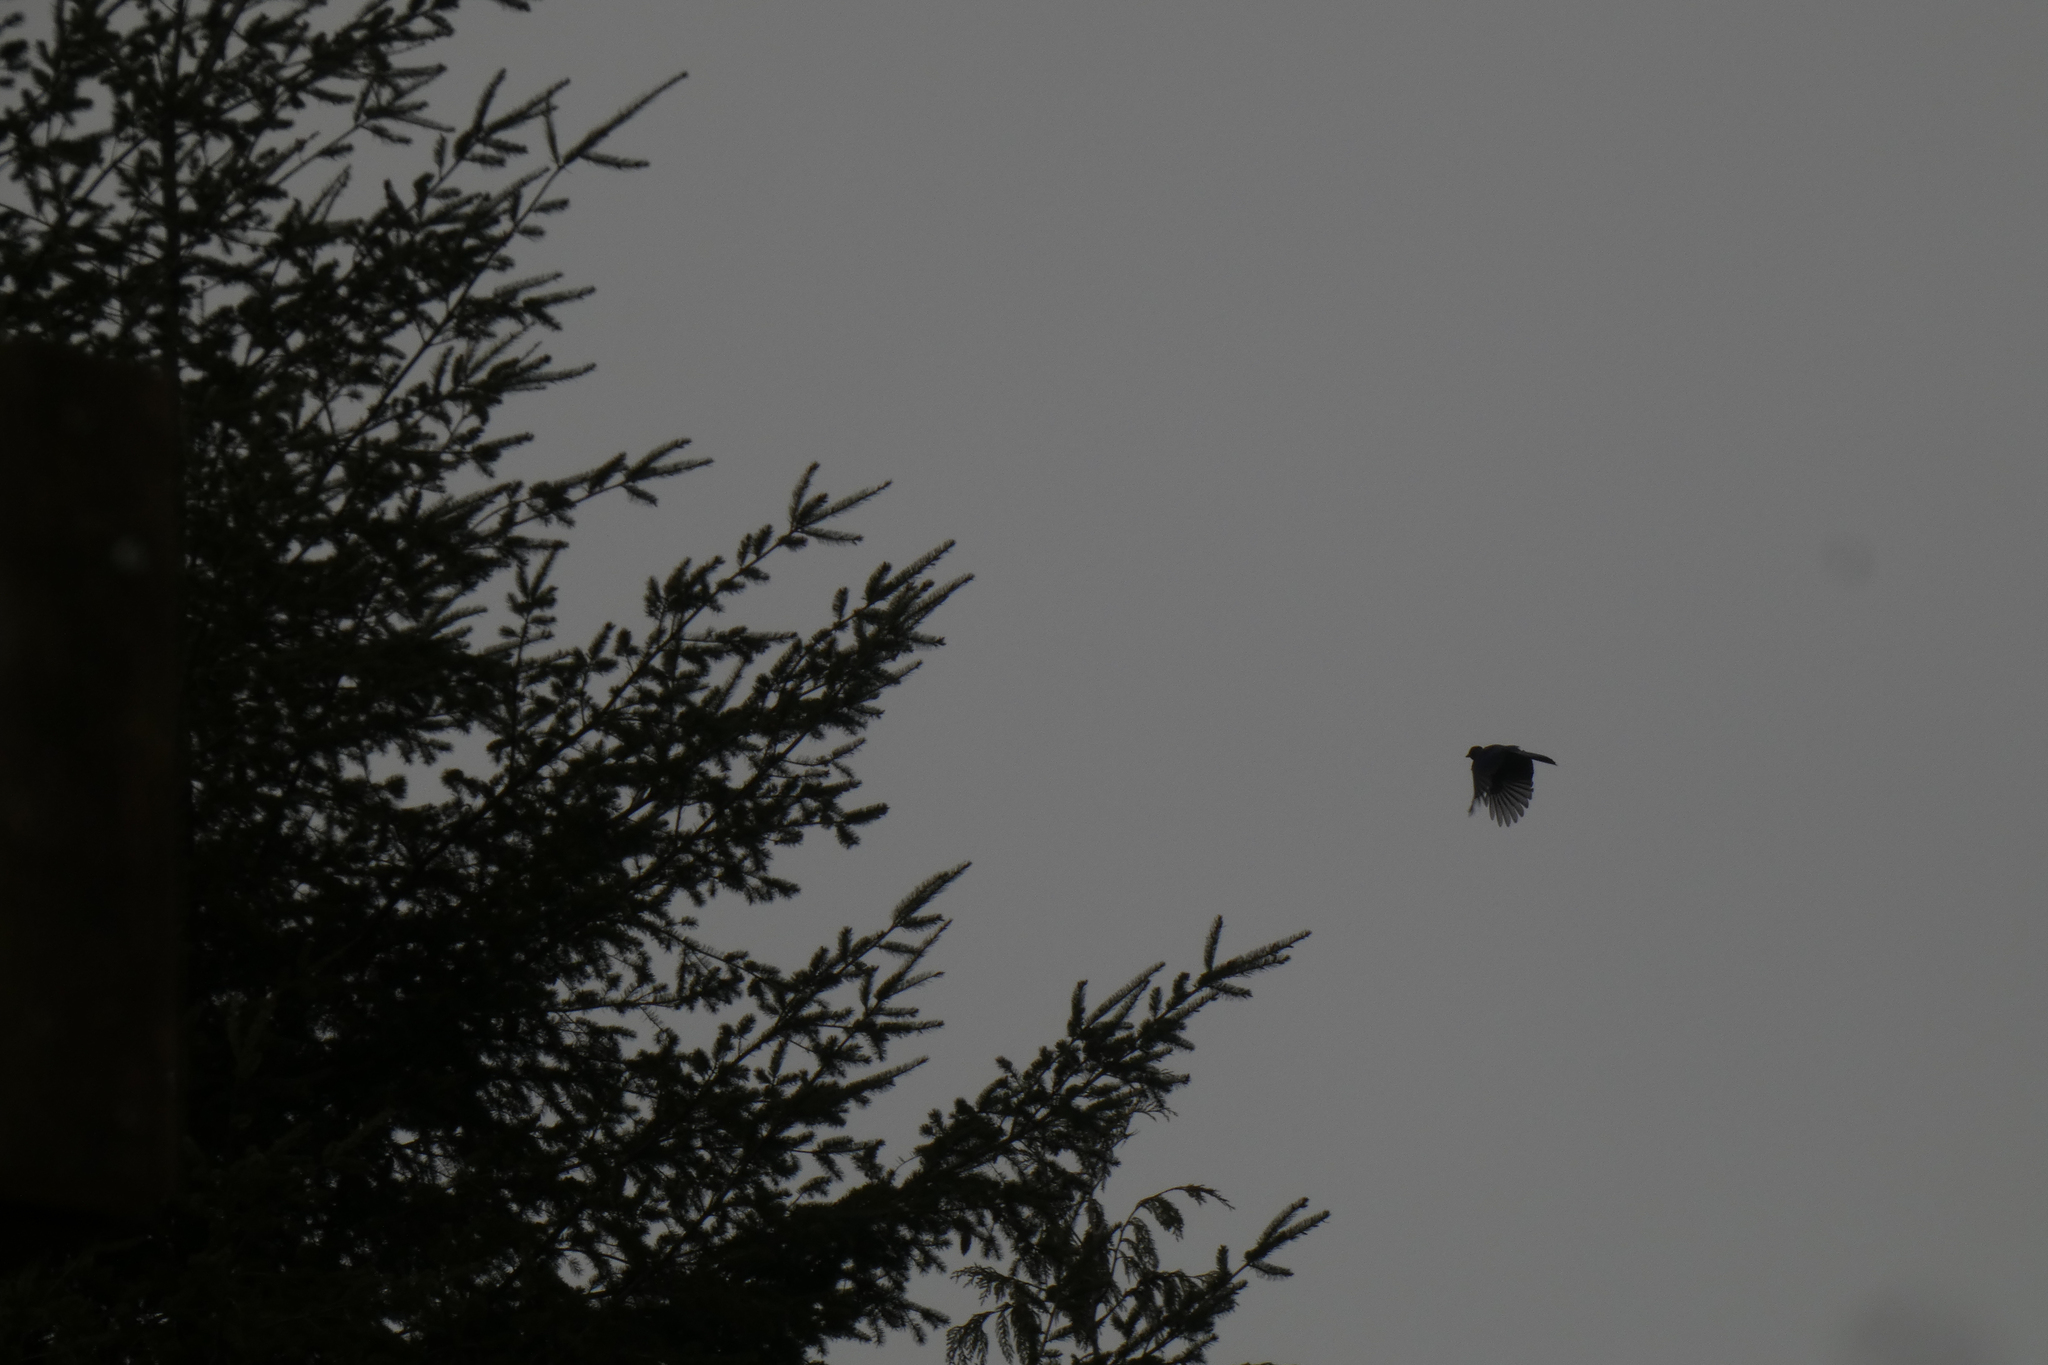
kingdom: Animalia
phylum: Chordata
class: Aves
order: Passeriformes
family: Corvidae
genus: Cyanocitta
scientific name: Cyanocitta stelleri
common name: Steller's jay
